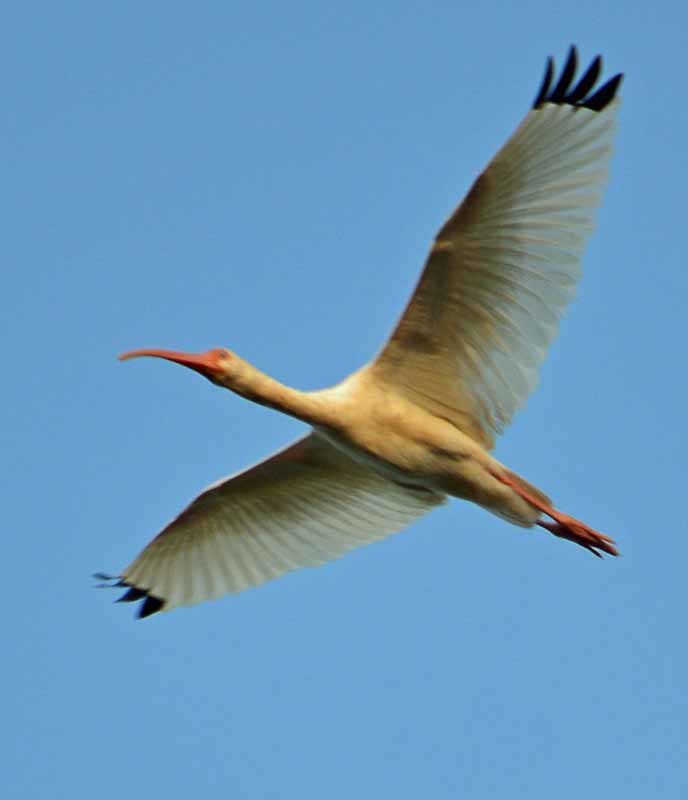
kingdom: Animalia
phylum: Chordata
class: Aves
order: Pelecaniformes
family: Threskiornithidae
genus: Eudocimus
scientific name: Eudocimus albus
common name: White ibis
